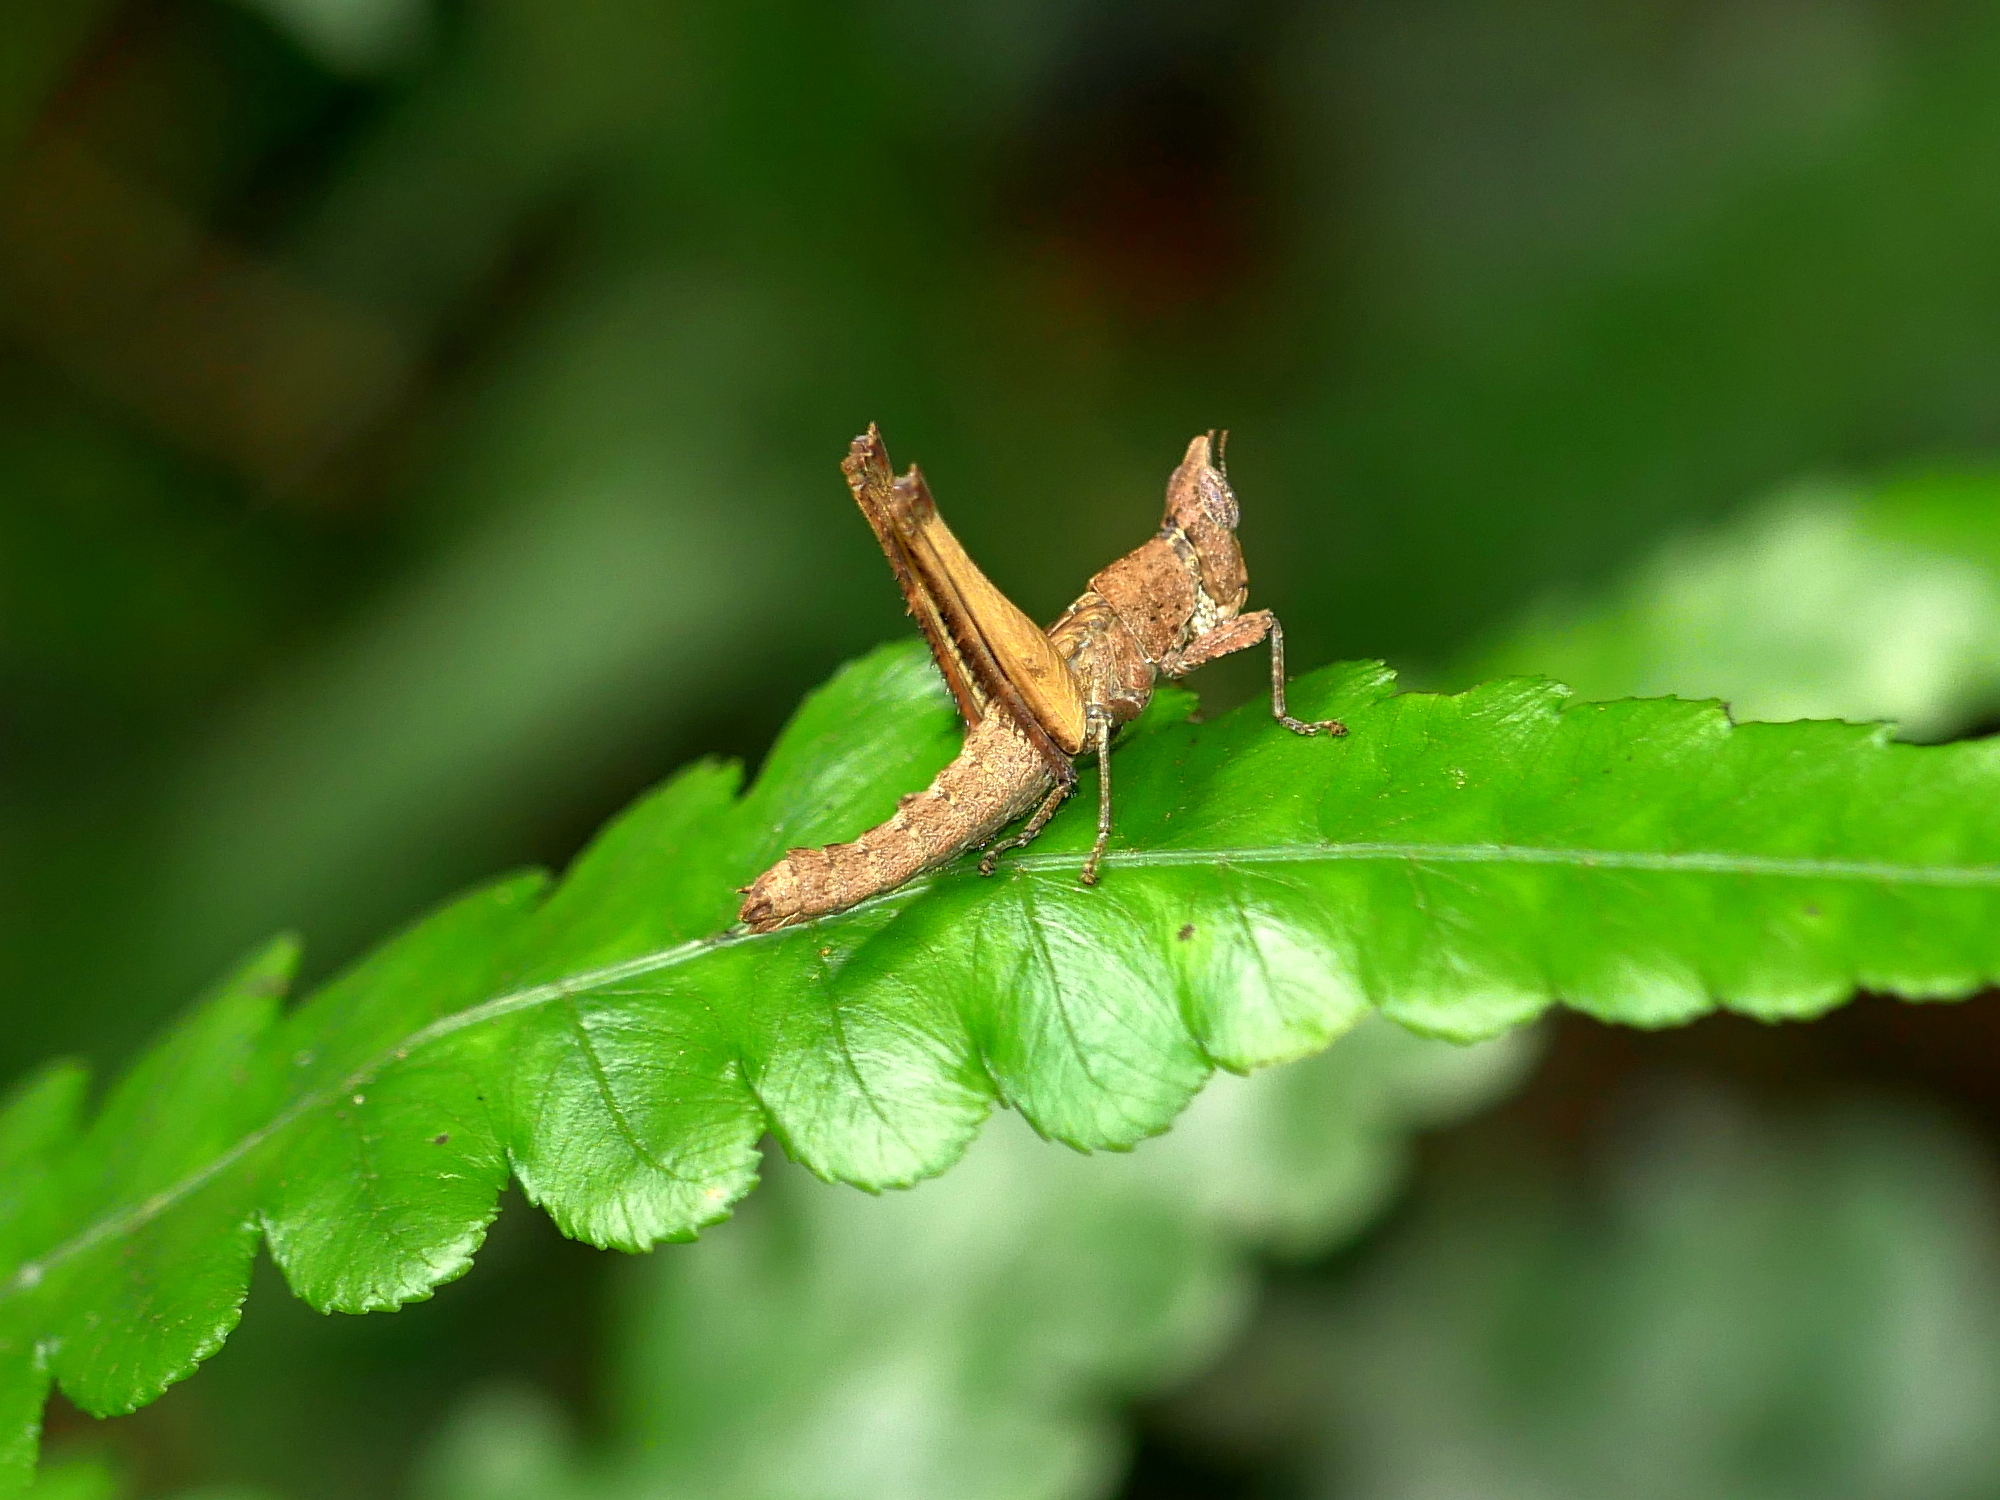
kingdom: Animalia
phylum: Arthropoda
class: Insecta
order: Orthoptera
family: Chorotypidae
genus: Erianthella
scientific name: Erianthella formosana
